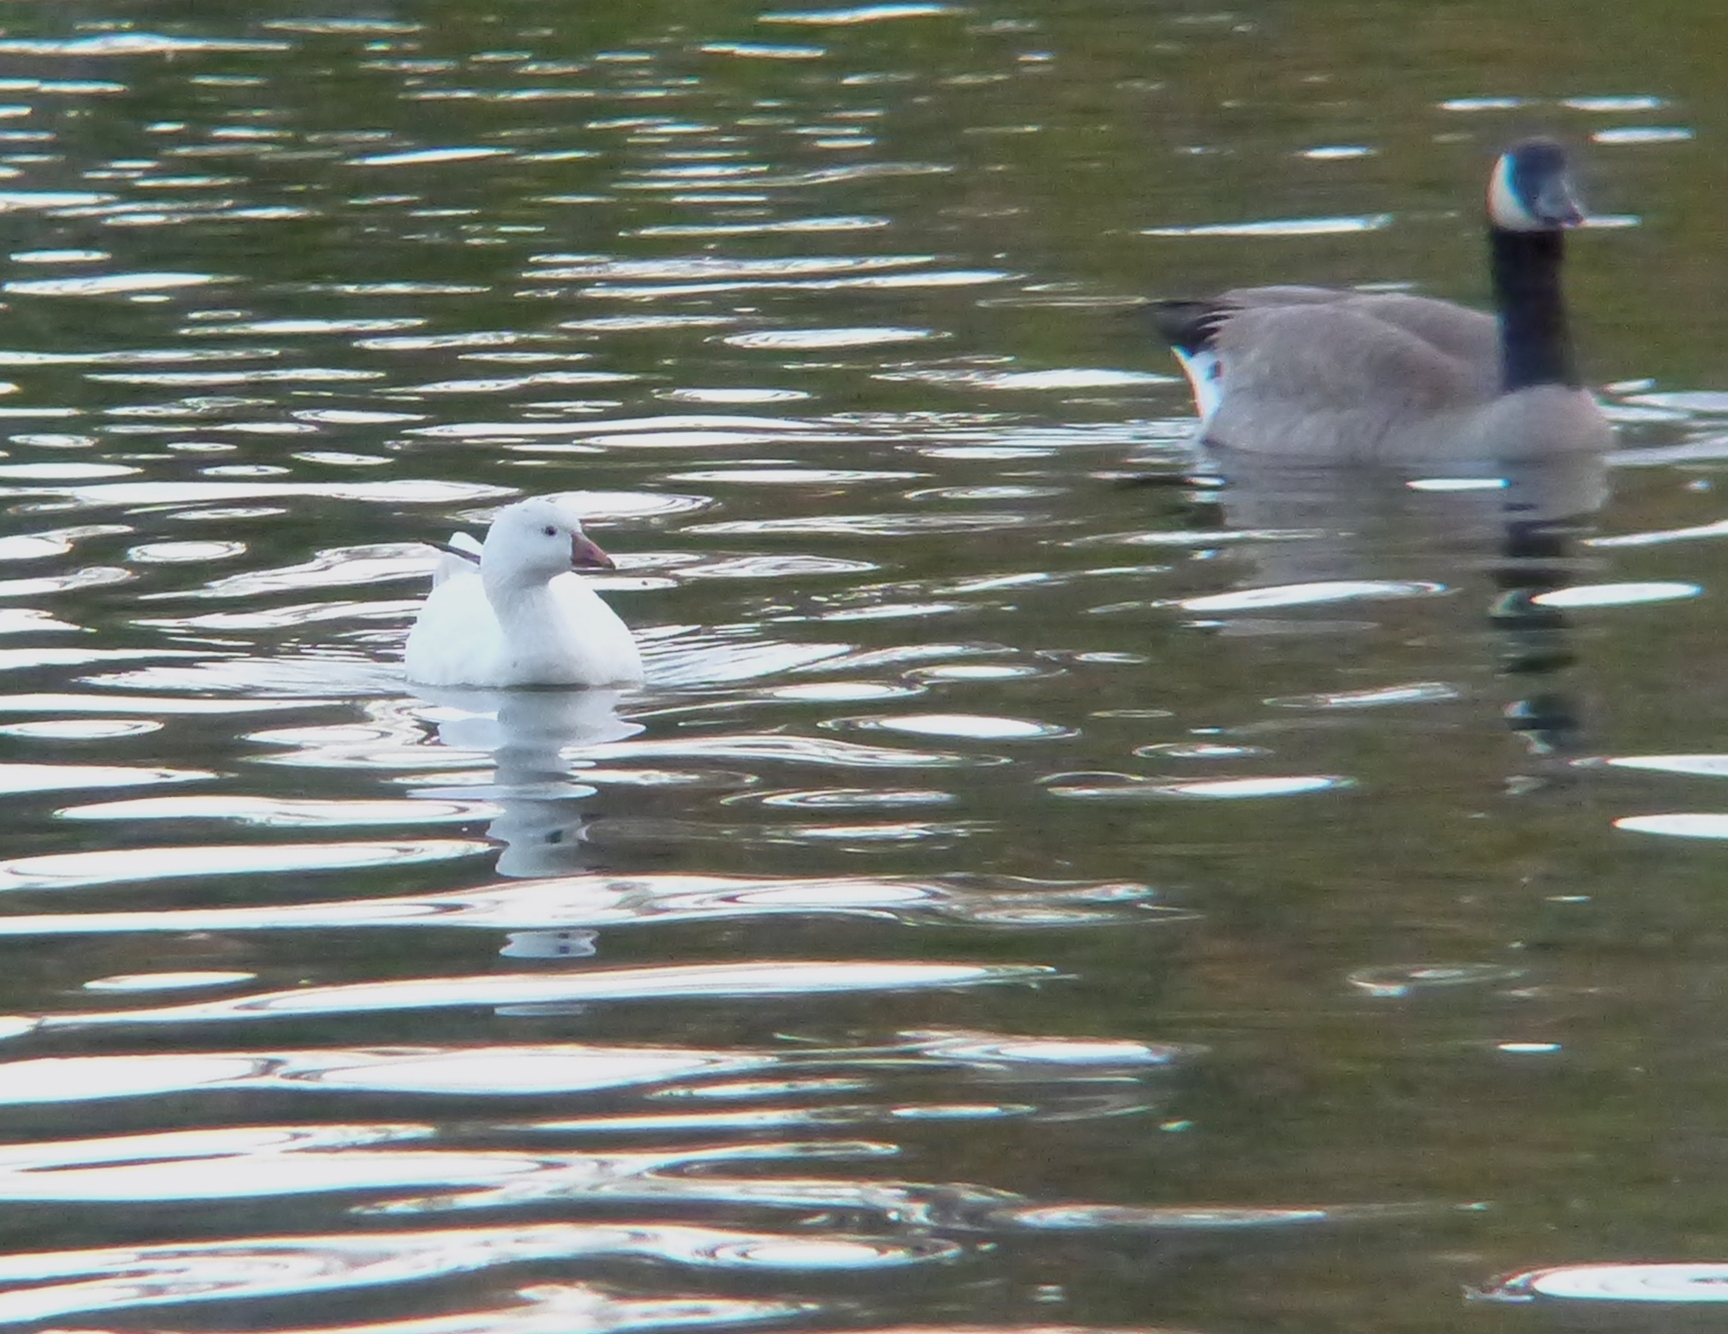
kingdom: Animalia
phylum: Chordata
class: Aves
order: Anseriformes
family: Anatidae
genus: Anser
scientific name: Anser rossii
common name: Ross's goose
